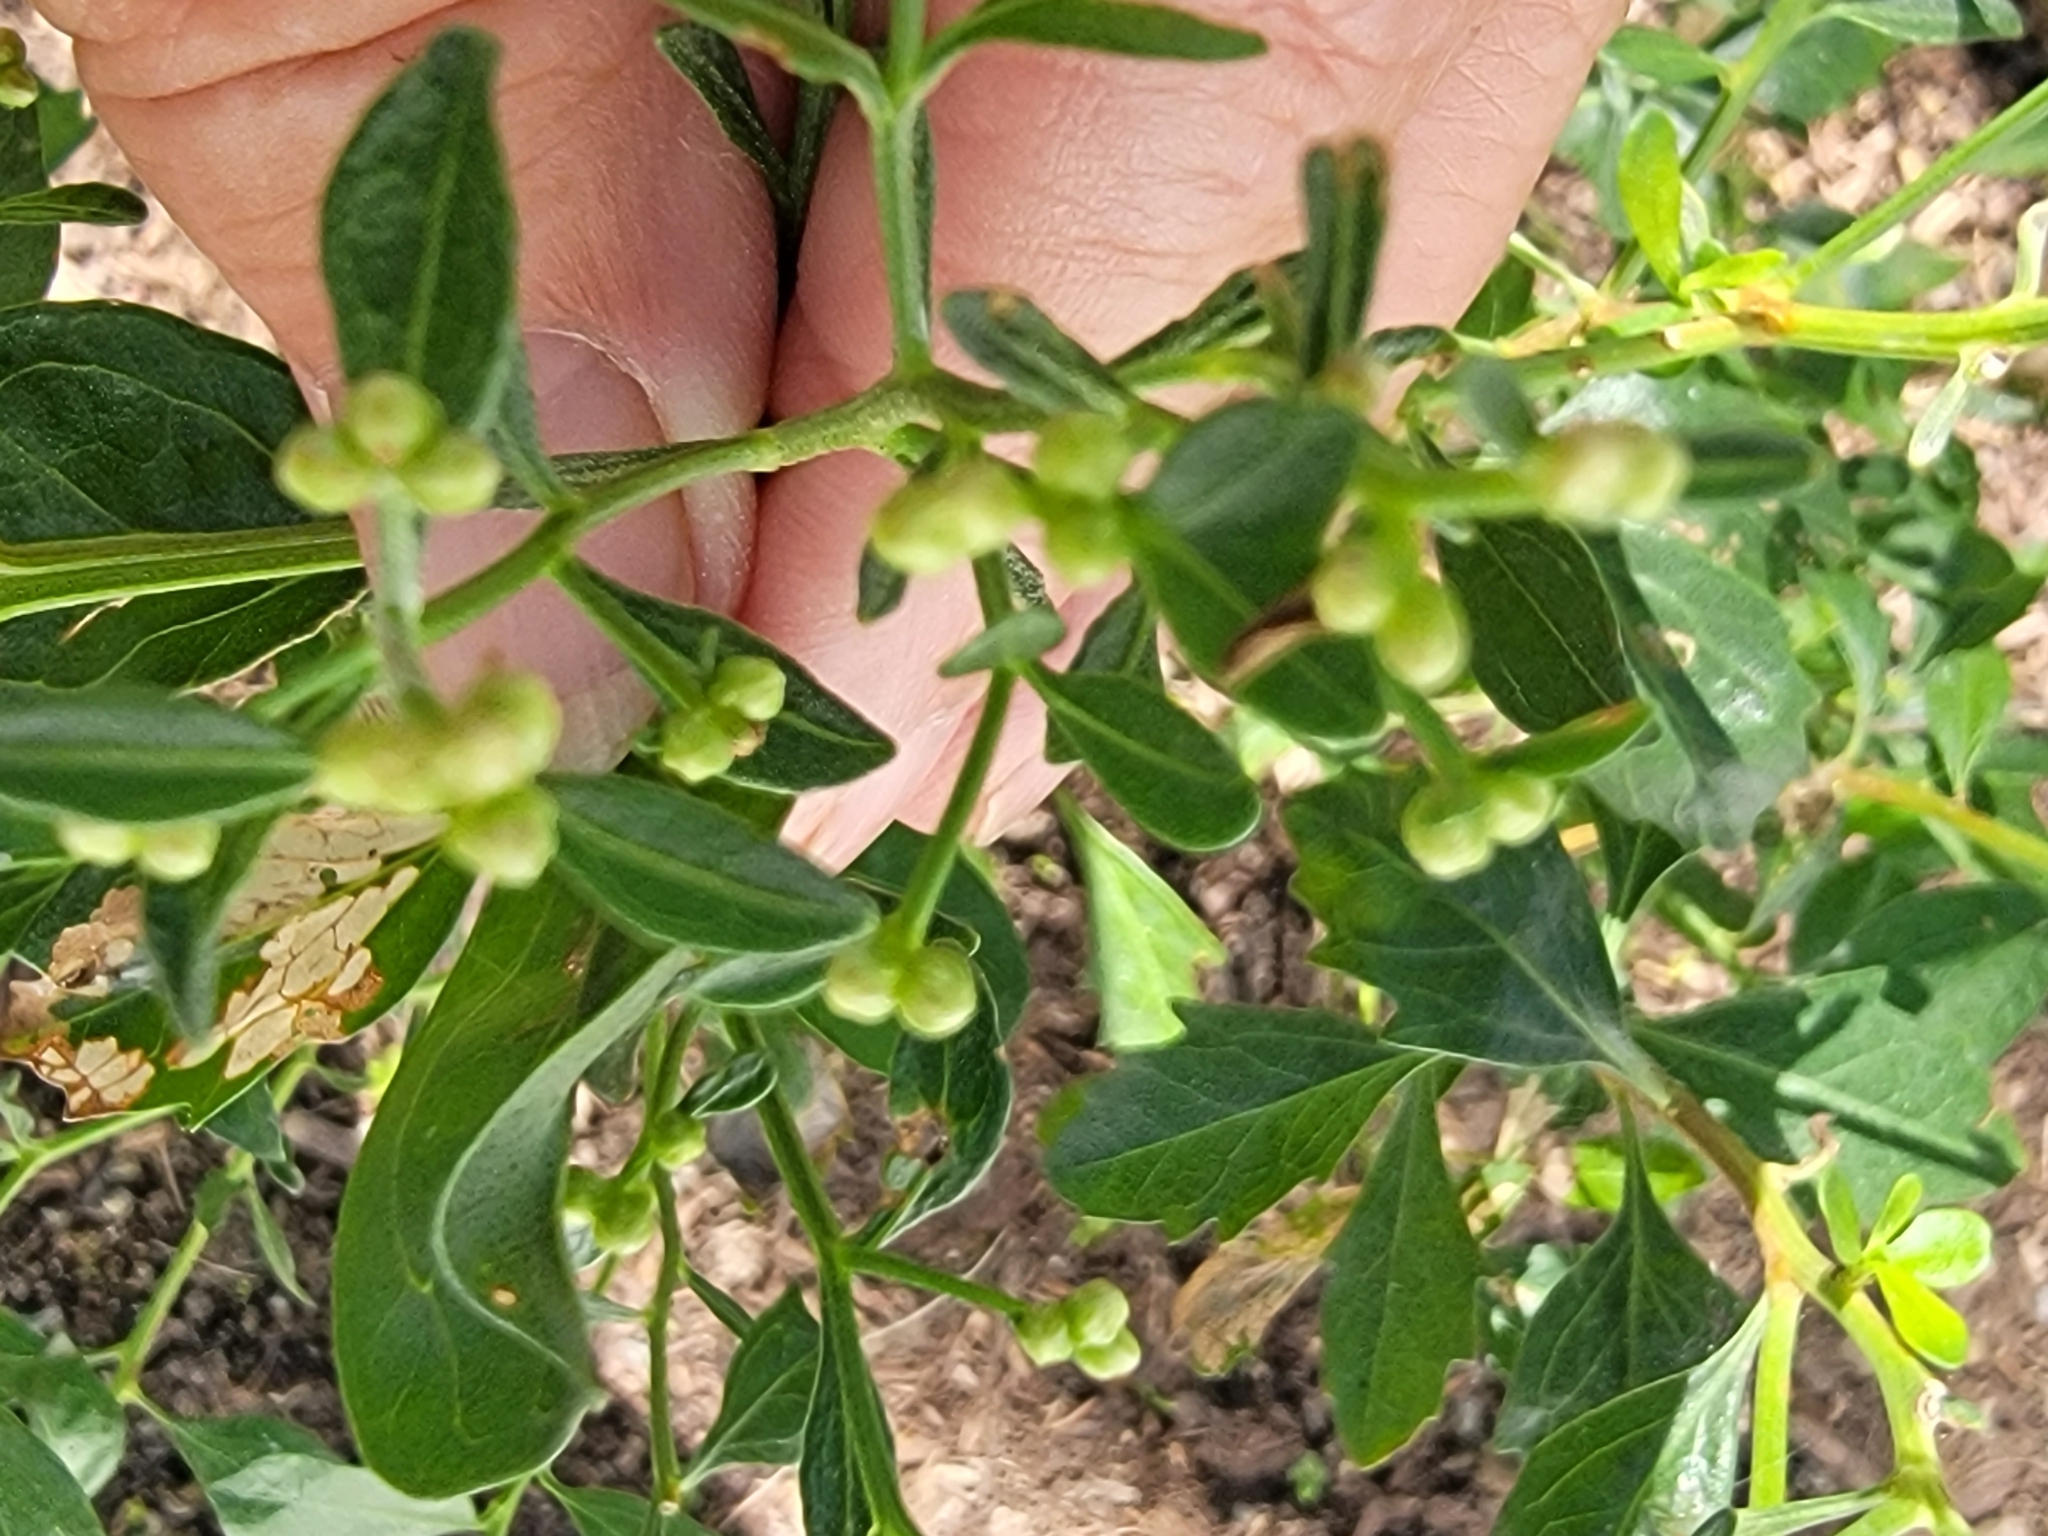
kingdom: Plantae
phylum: Tracheophyta
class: Magnoliopsida
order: Asterales
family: Asteraceae
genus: Baccharis
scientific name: Baccharis halimifolia
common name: Eastern baccharis
